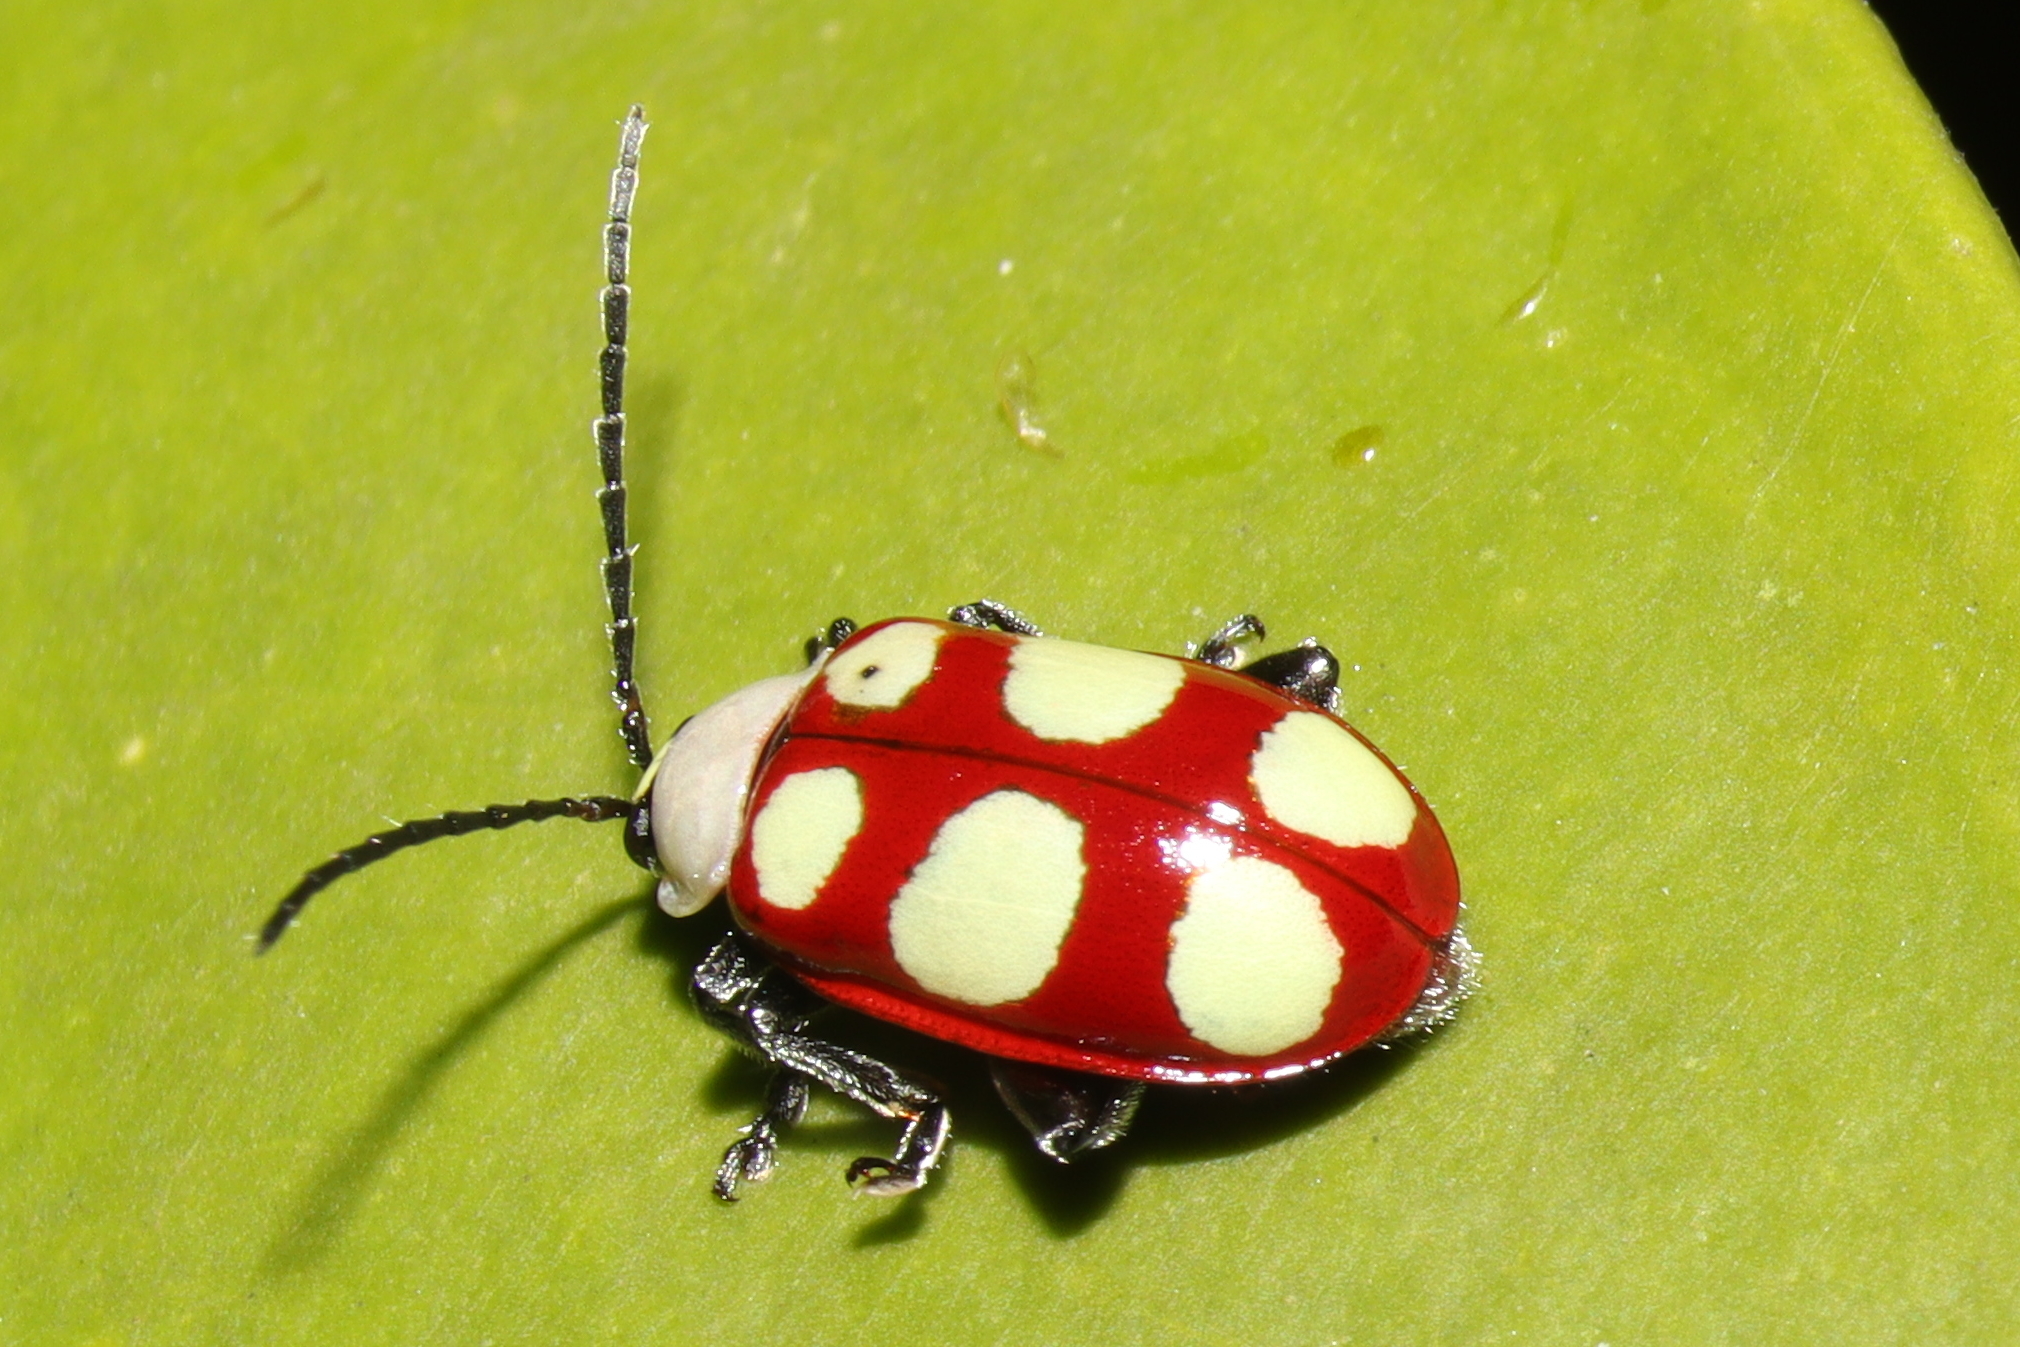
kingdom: Animalia
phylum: Arthropoda
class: Insecta
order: Coleoptera
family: Chrysomelidae
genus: Omophoita
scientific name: Omophoita
